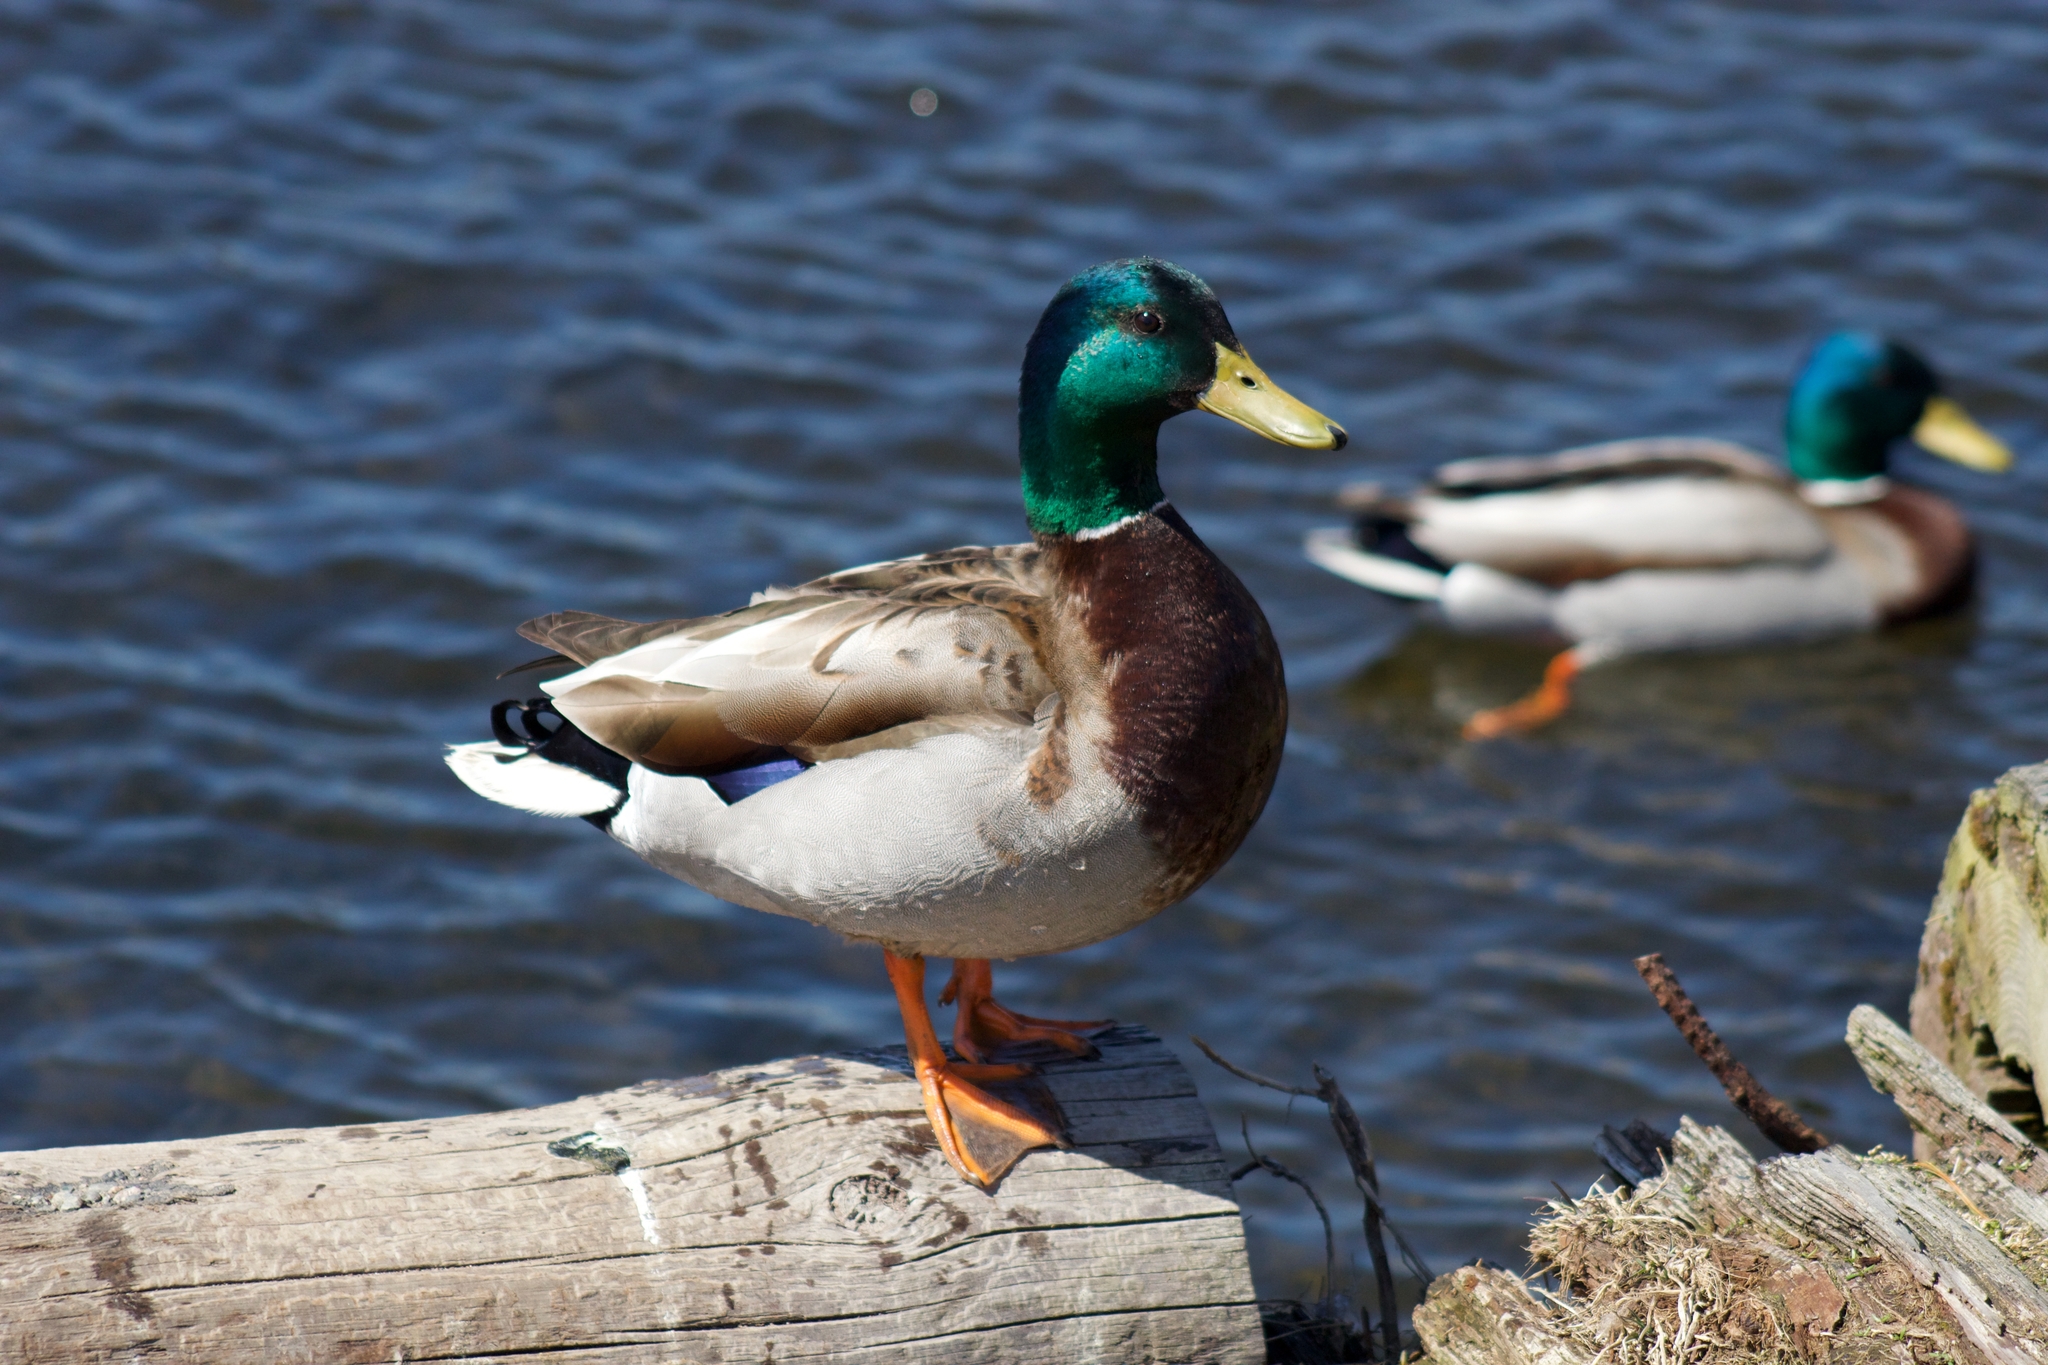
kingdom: Animalia
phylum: Chordata
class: Aves
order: Anseriformes
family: Anatidae
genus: Anas
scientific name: Anas platyrhynchos
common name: Mallard
